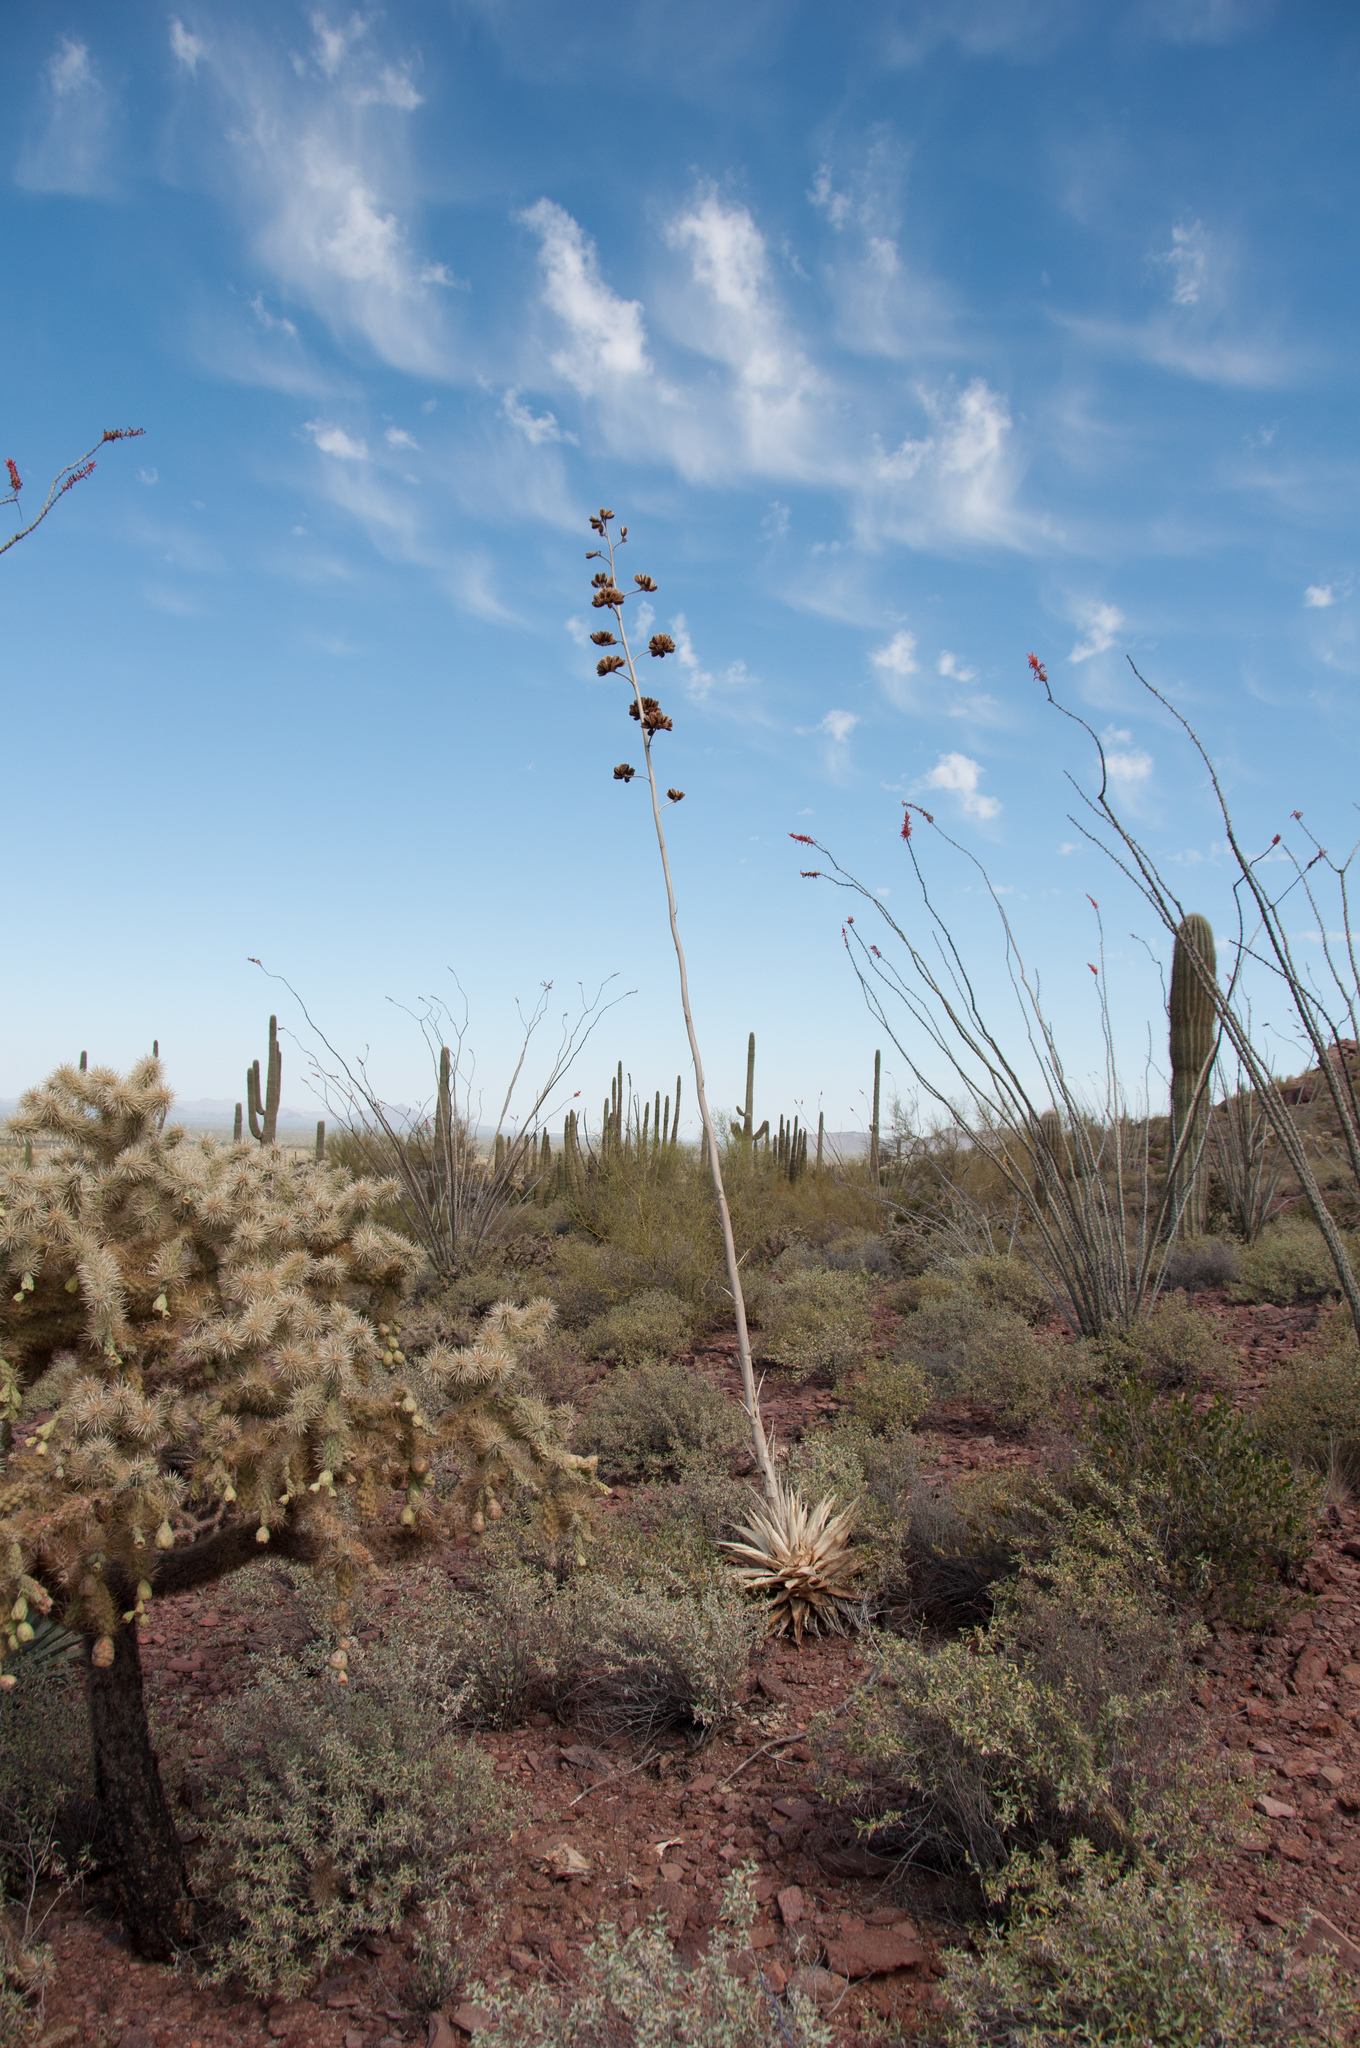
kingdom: Plantae
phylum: Tracheophyta
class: Liliopsida
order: Asparagales
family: Asparagaceae
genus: Agave
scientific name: Agave simplex
